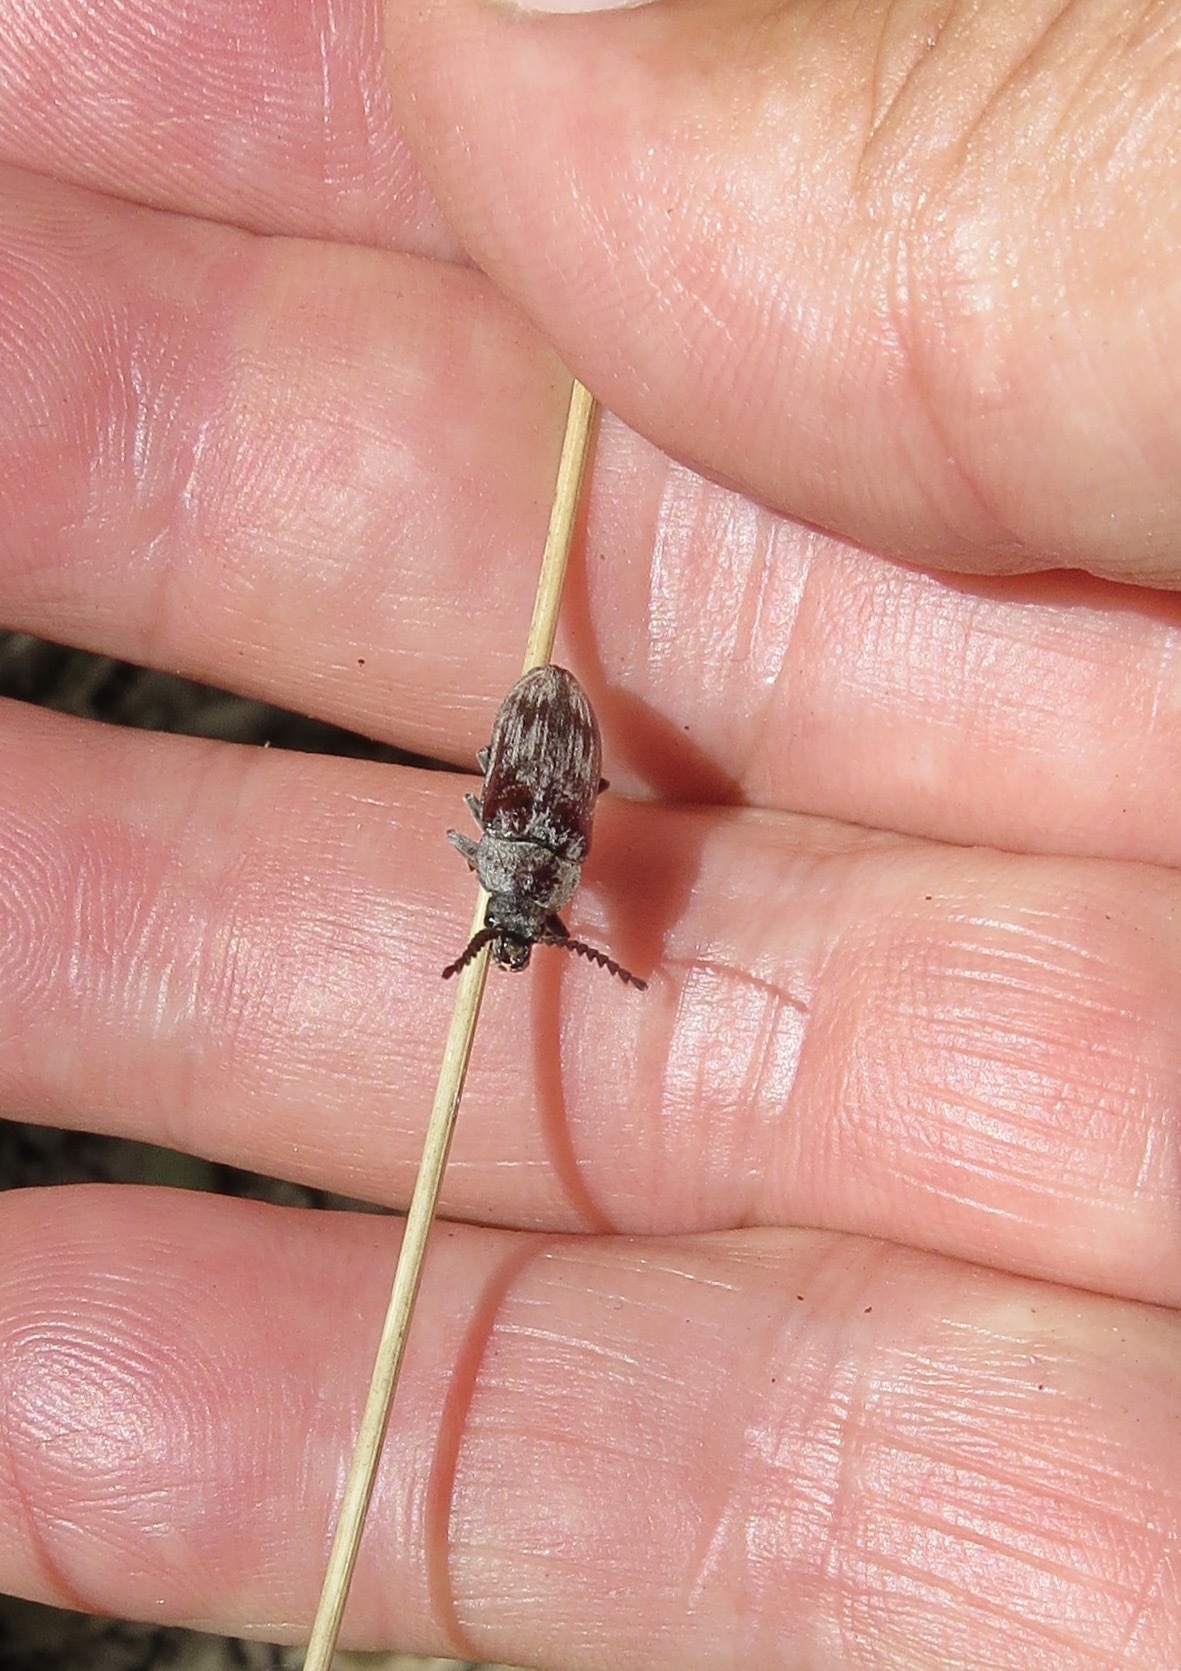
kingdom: Animalia
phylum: Arthropoda
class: Insecta
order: Coleoptera
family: Dascillidae
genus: Dascillus
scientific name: Dascillus davidsoni
